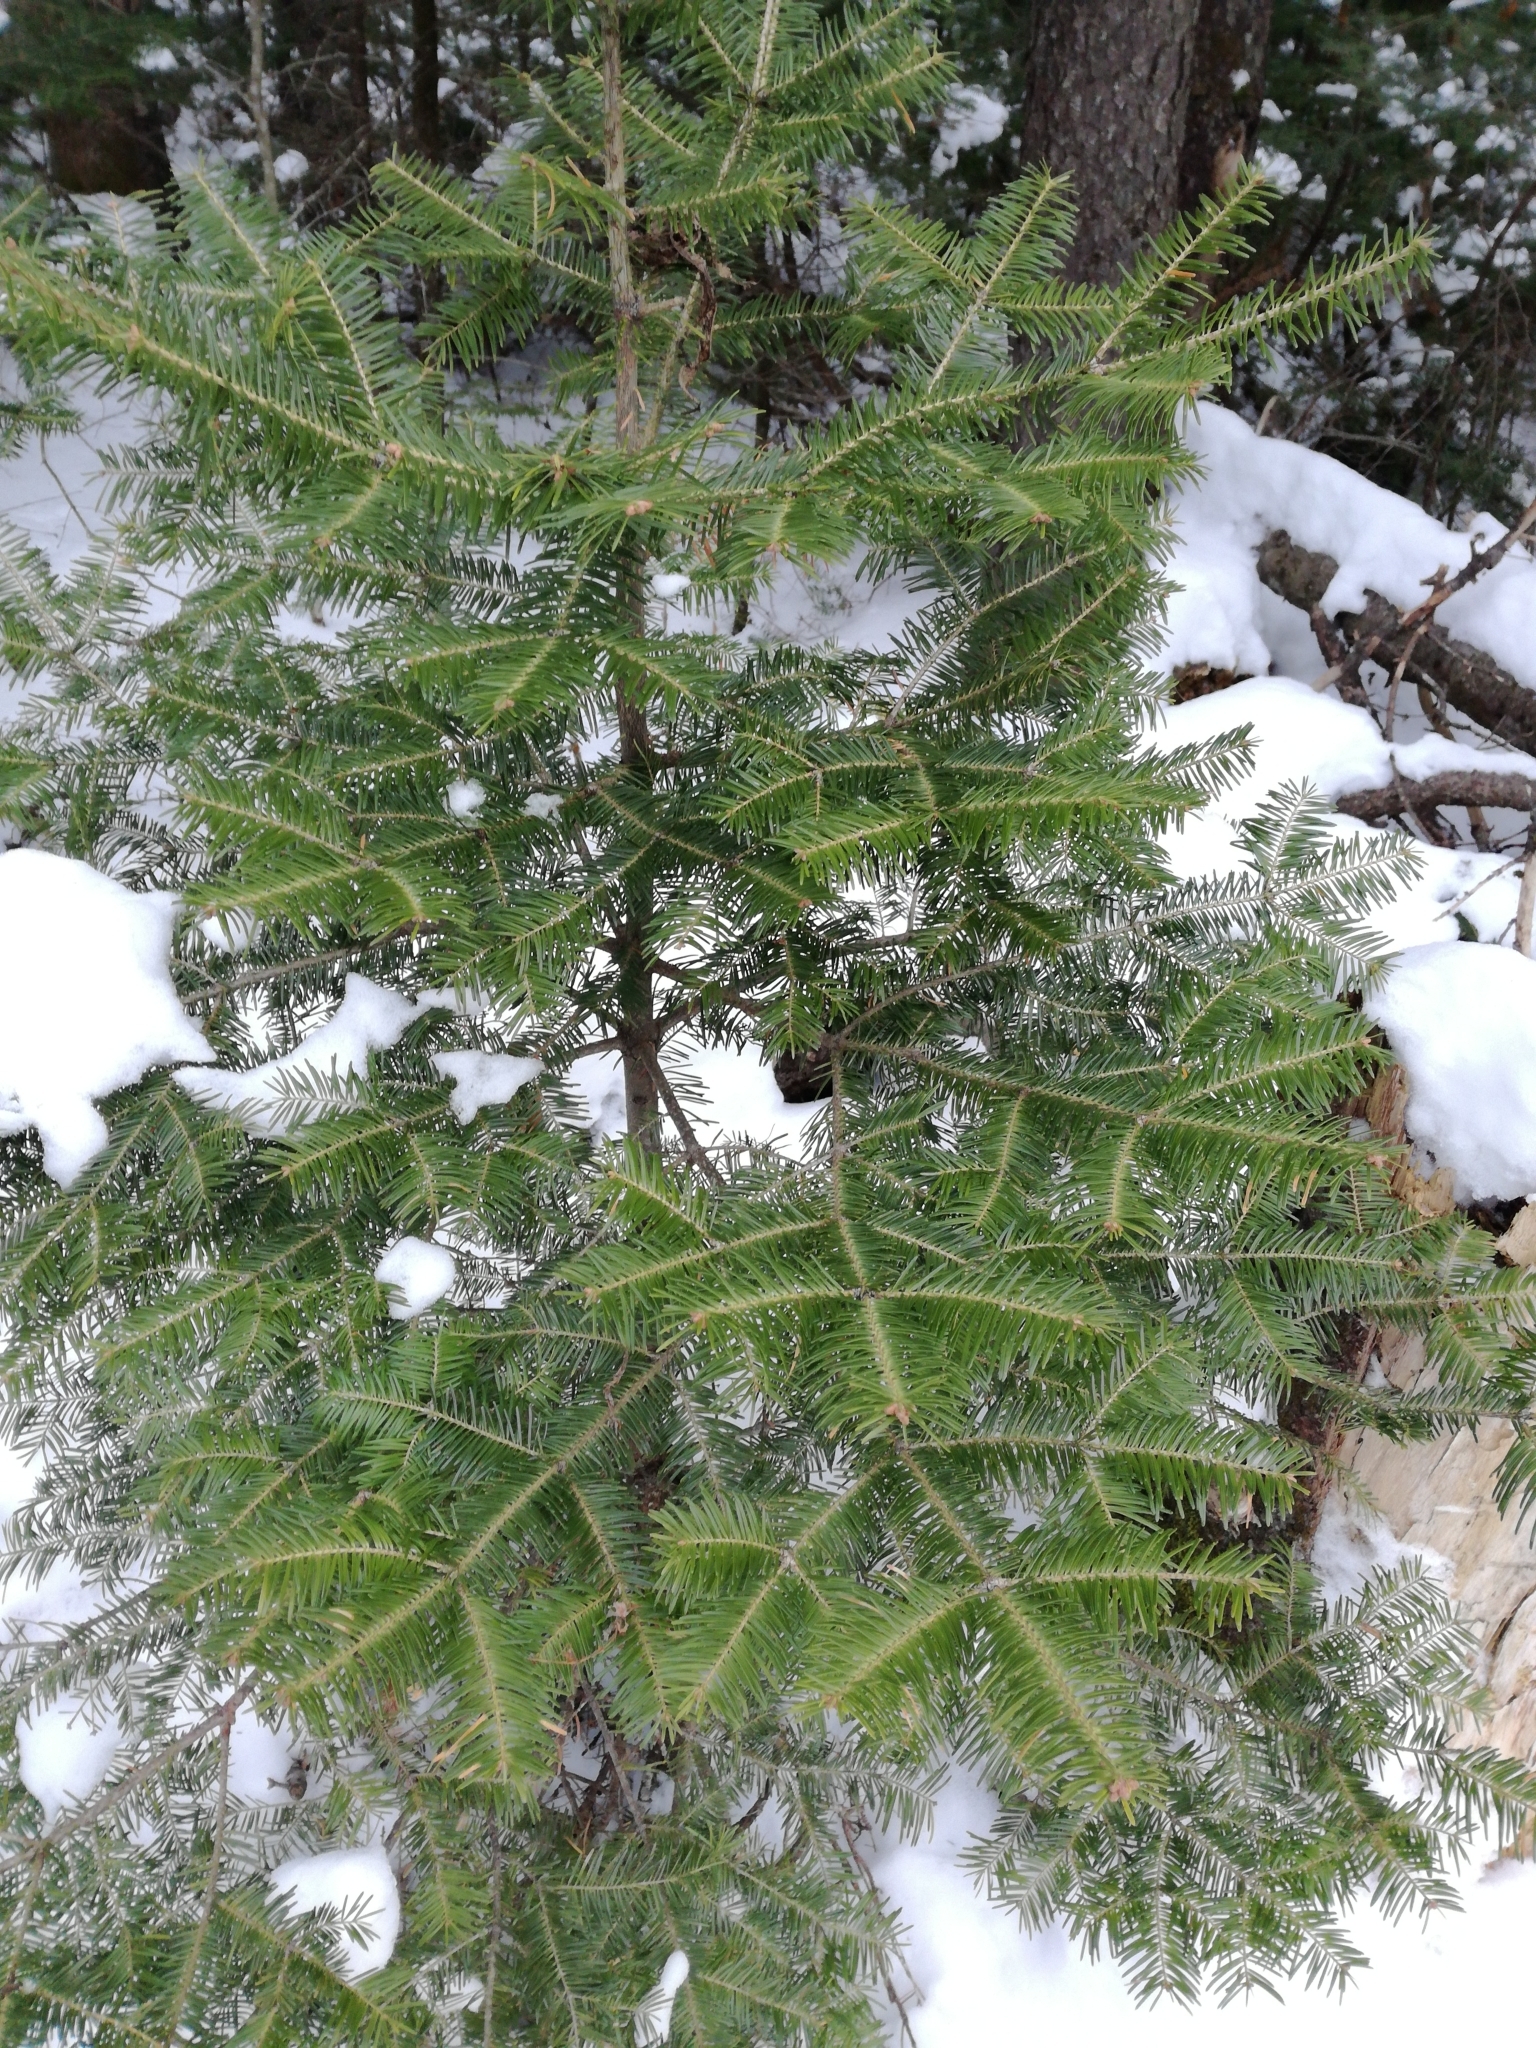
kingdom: Plantae
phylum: Tracheophyta
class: Pinopsida
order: Pinales
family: Pinaceae
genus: Abies
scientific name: Abies balsamea
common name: Balsam fir
